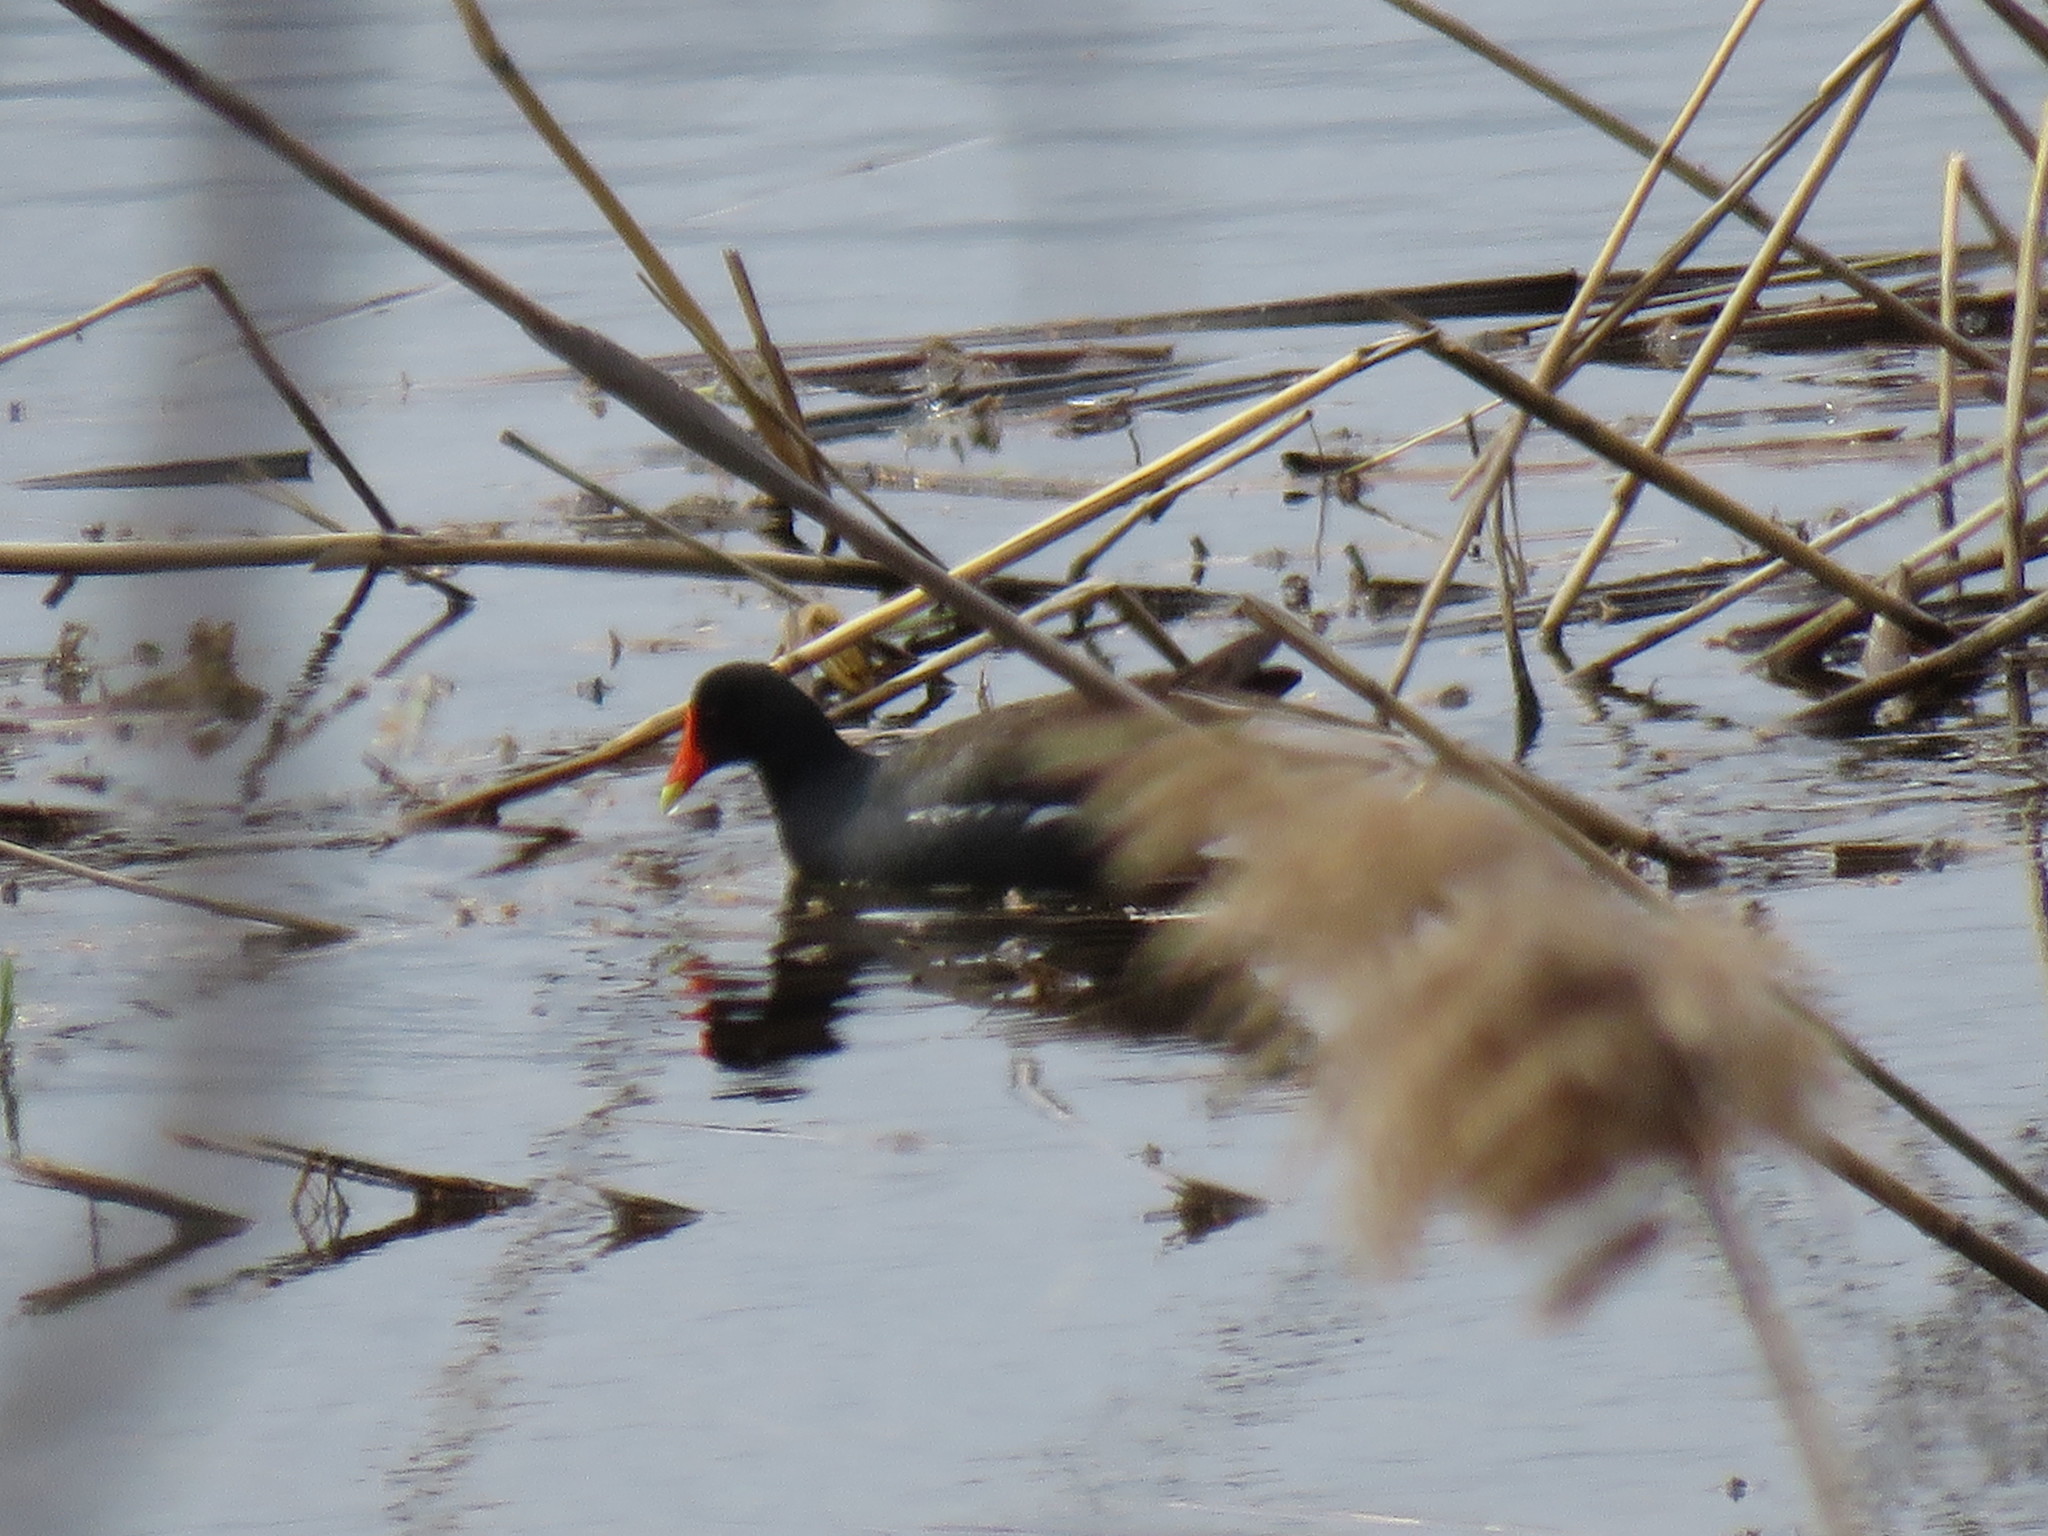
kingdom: Animalia
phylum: Chordata
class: Aves
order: Gruiformes
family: Rallidae
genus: Gallinula
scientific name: Gallinula chloropus
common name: Common moorhen
